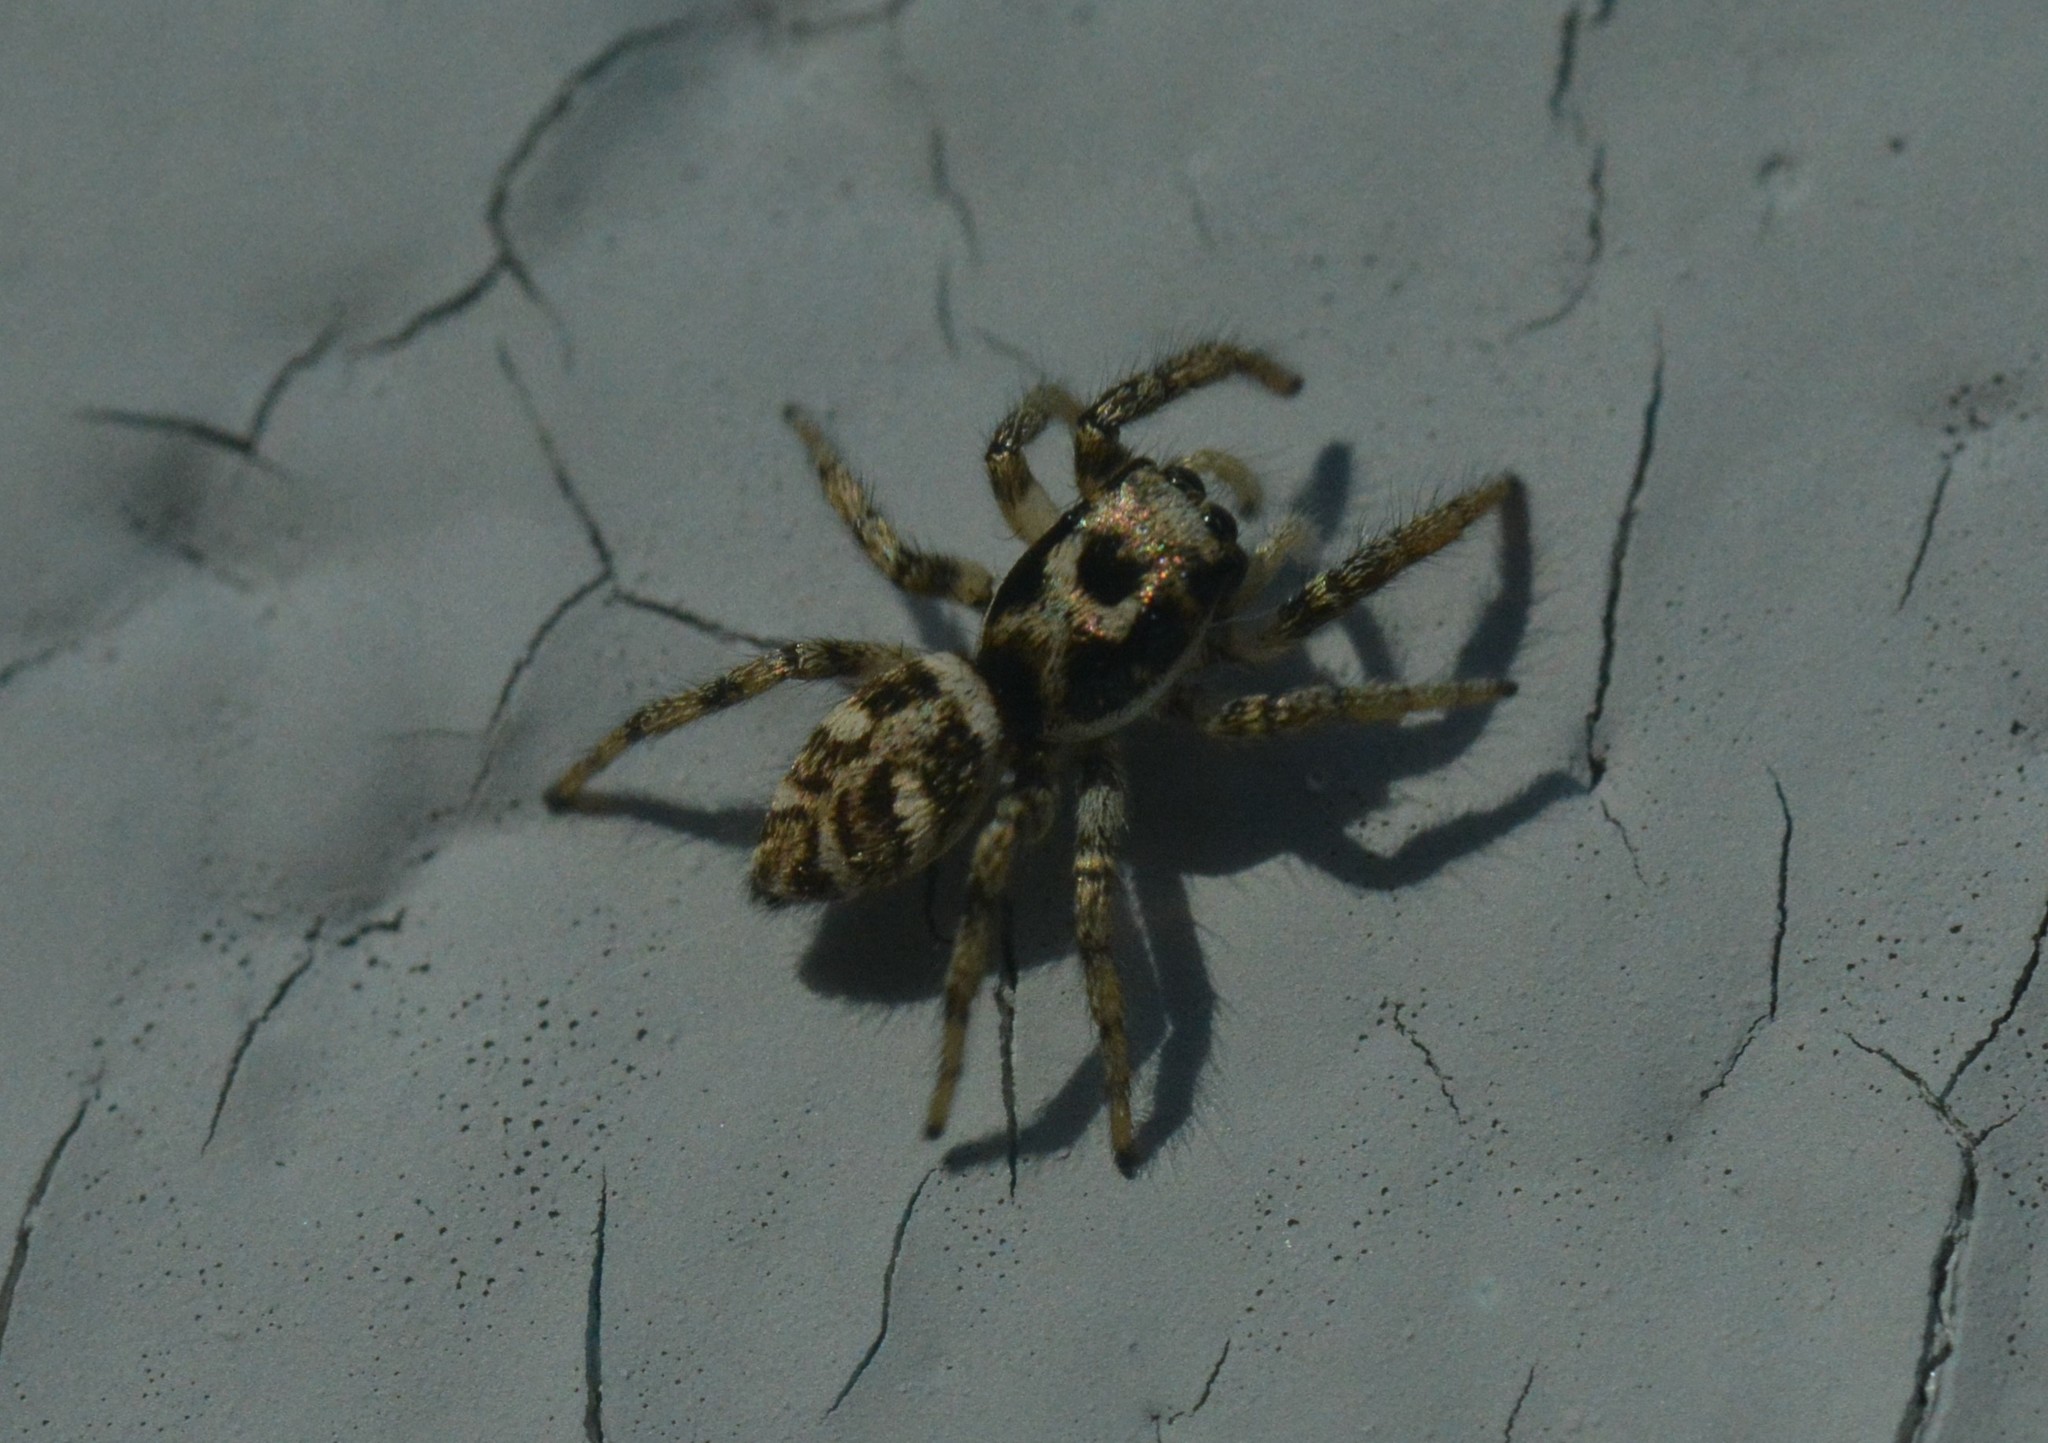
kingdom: Animalia
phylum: Arthropoda
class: Arachnida
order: Araneae
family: Salticidae
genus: Salticus
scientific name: Salticus scenicus
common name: Zebra jumper
